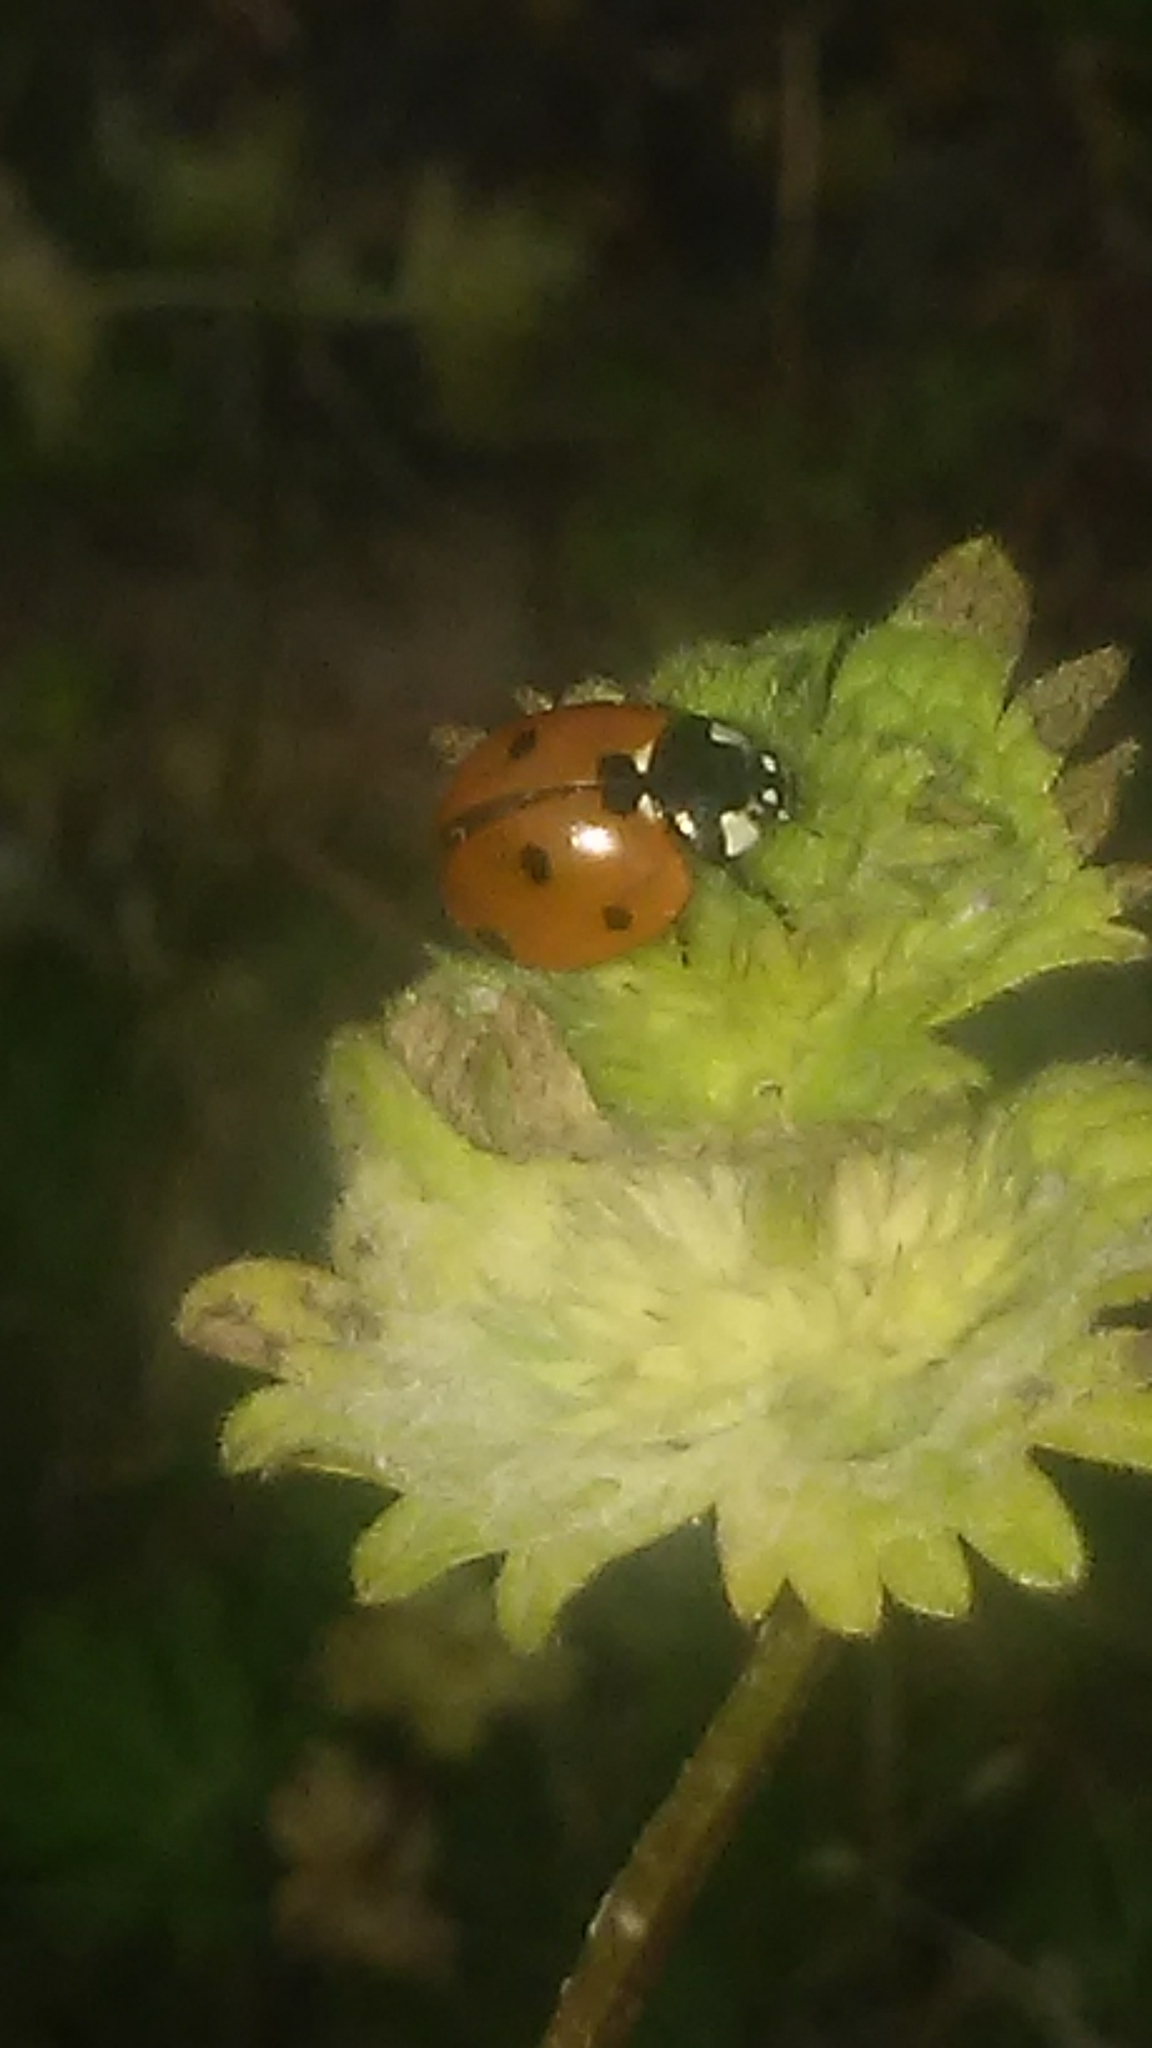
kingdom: Animalia
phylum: Arthropoda
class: Insecta
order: Coleoptera
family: Coccinellidae
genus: Coccinella
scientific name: Coccinella septempunctata
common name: Sevenspotted lady beetle
